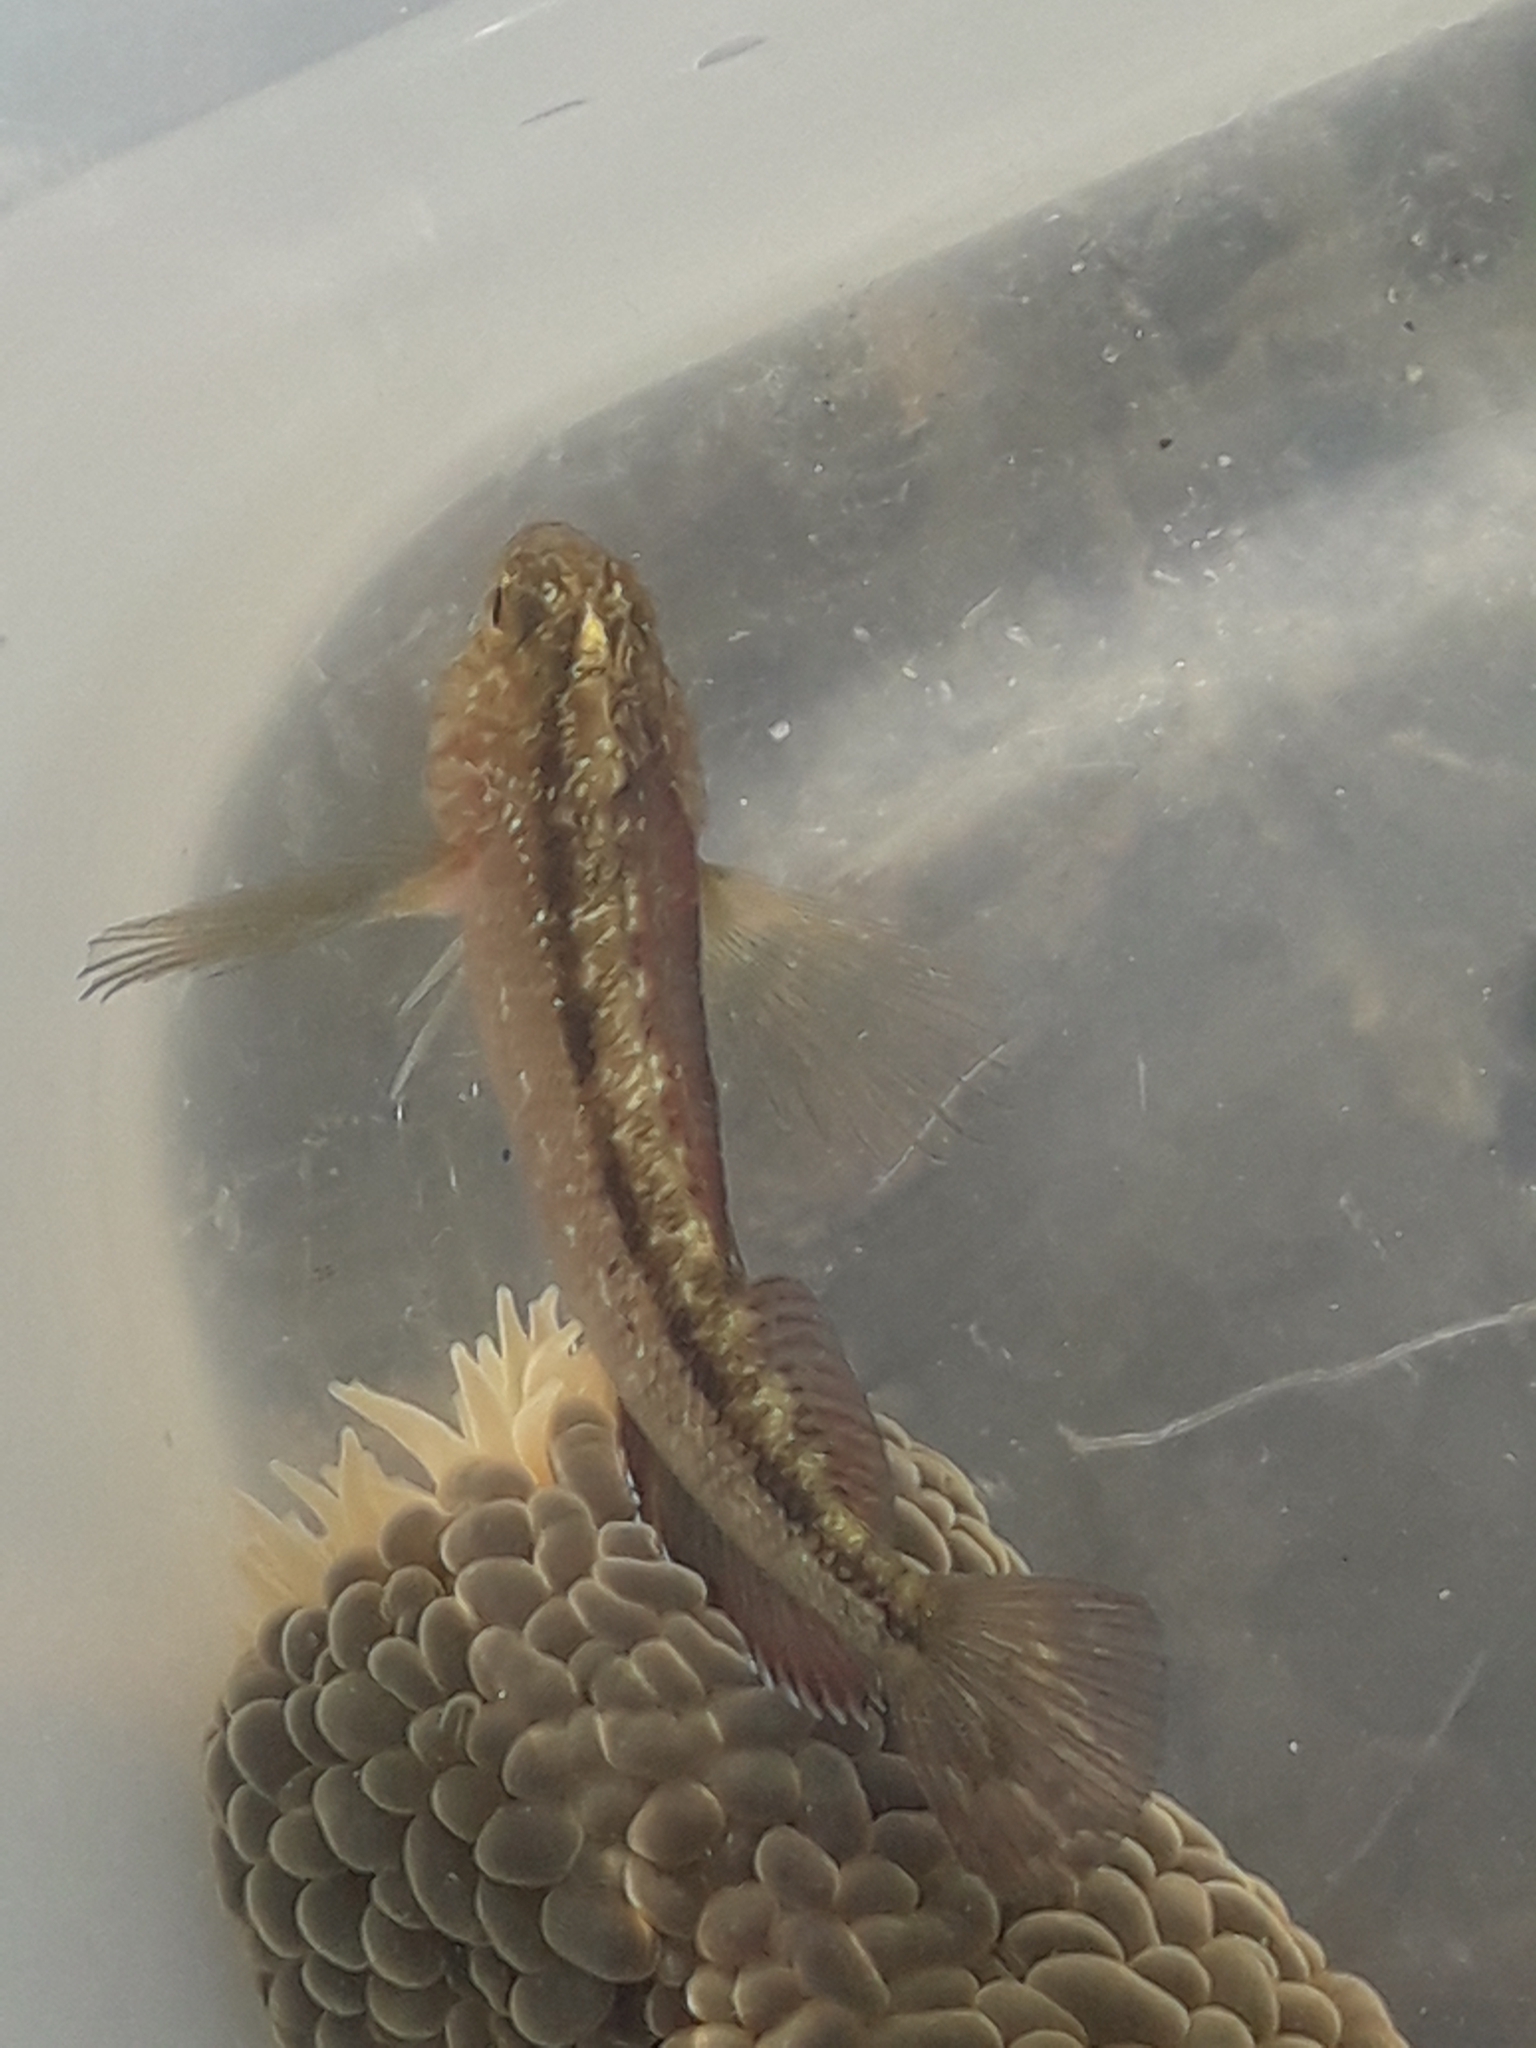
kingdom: Animalia
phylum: Chordata
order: Perciformes
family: Tripterygiidae
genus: Forsterygion
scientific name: Forsterygion lapillum
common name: Common triplefin
